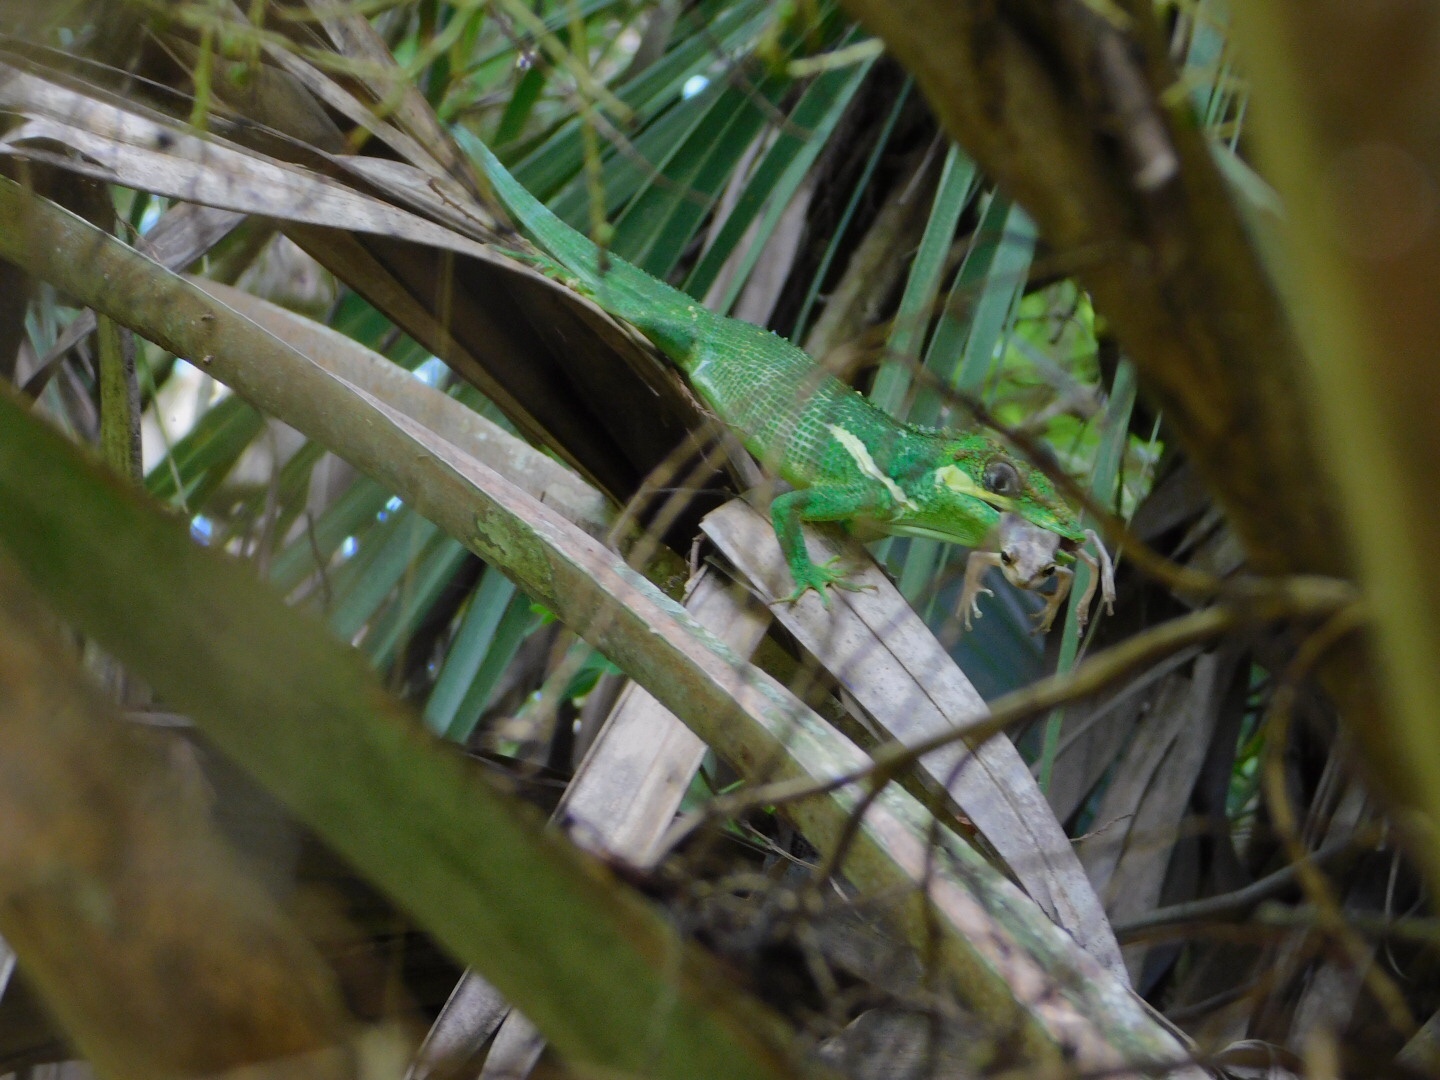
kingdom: Animalia
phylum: Chordata
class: Squamata
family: Dactyloidae
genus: Anolis
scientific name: Anolis equestris
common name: Knight anole
